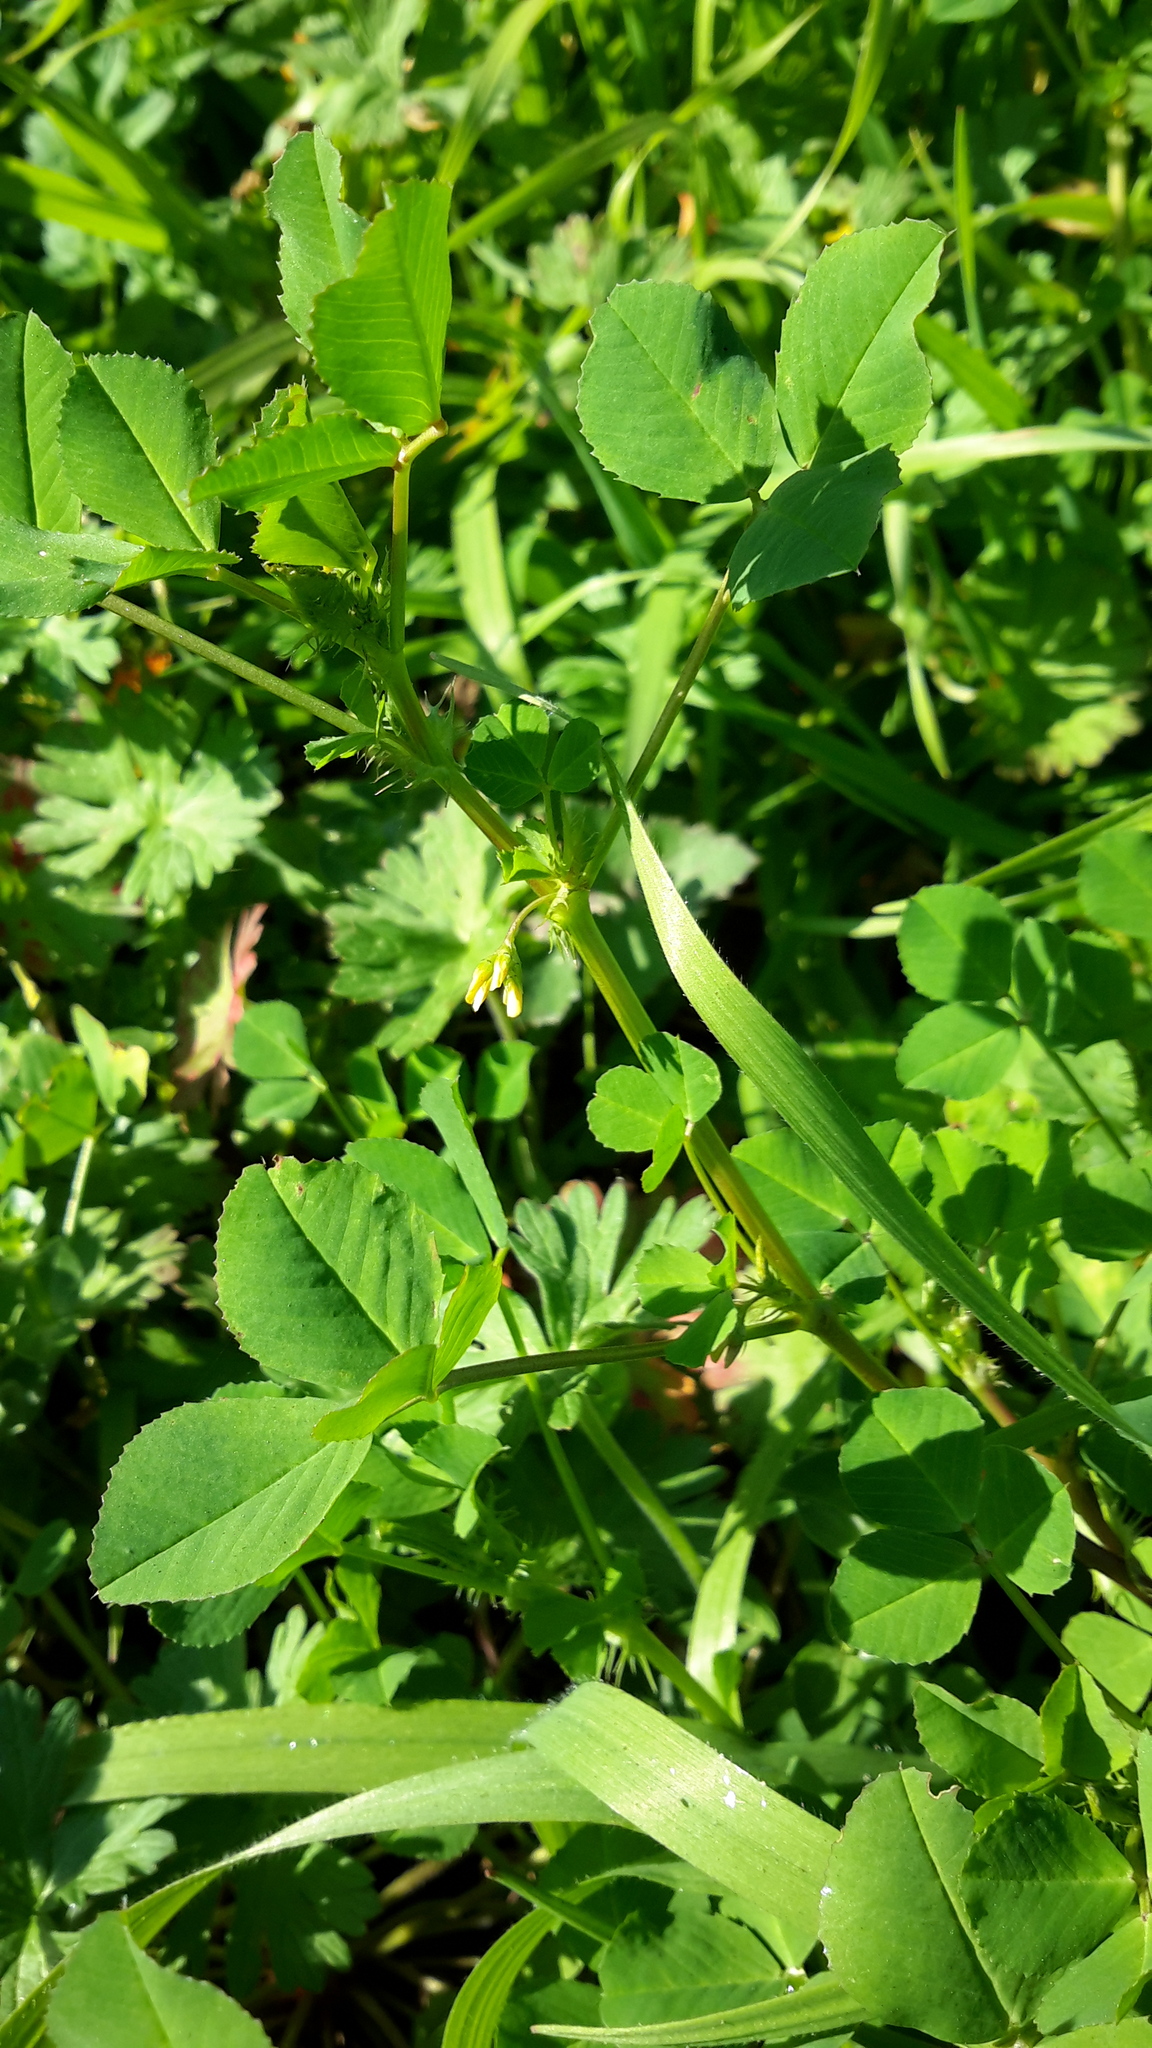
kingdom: Plantae
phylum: Tracheophyta
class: Magnoliopsida
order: Fabales
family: Fabaceae
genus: Medicago
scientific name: Medicago polymorpha
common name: Burclover
